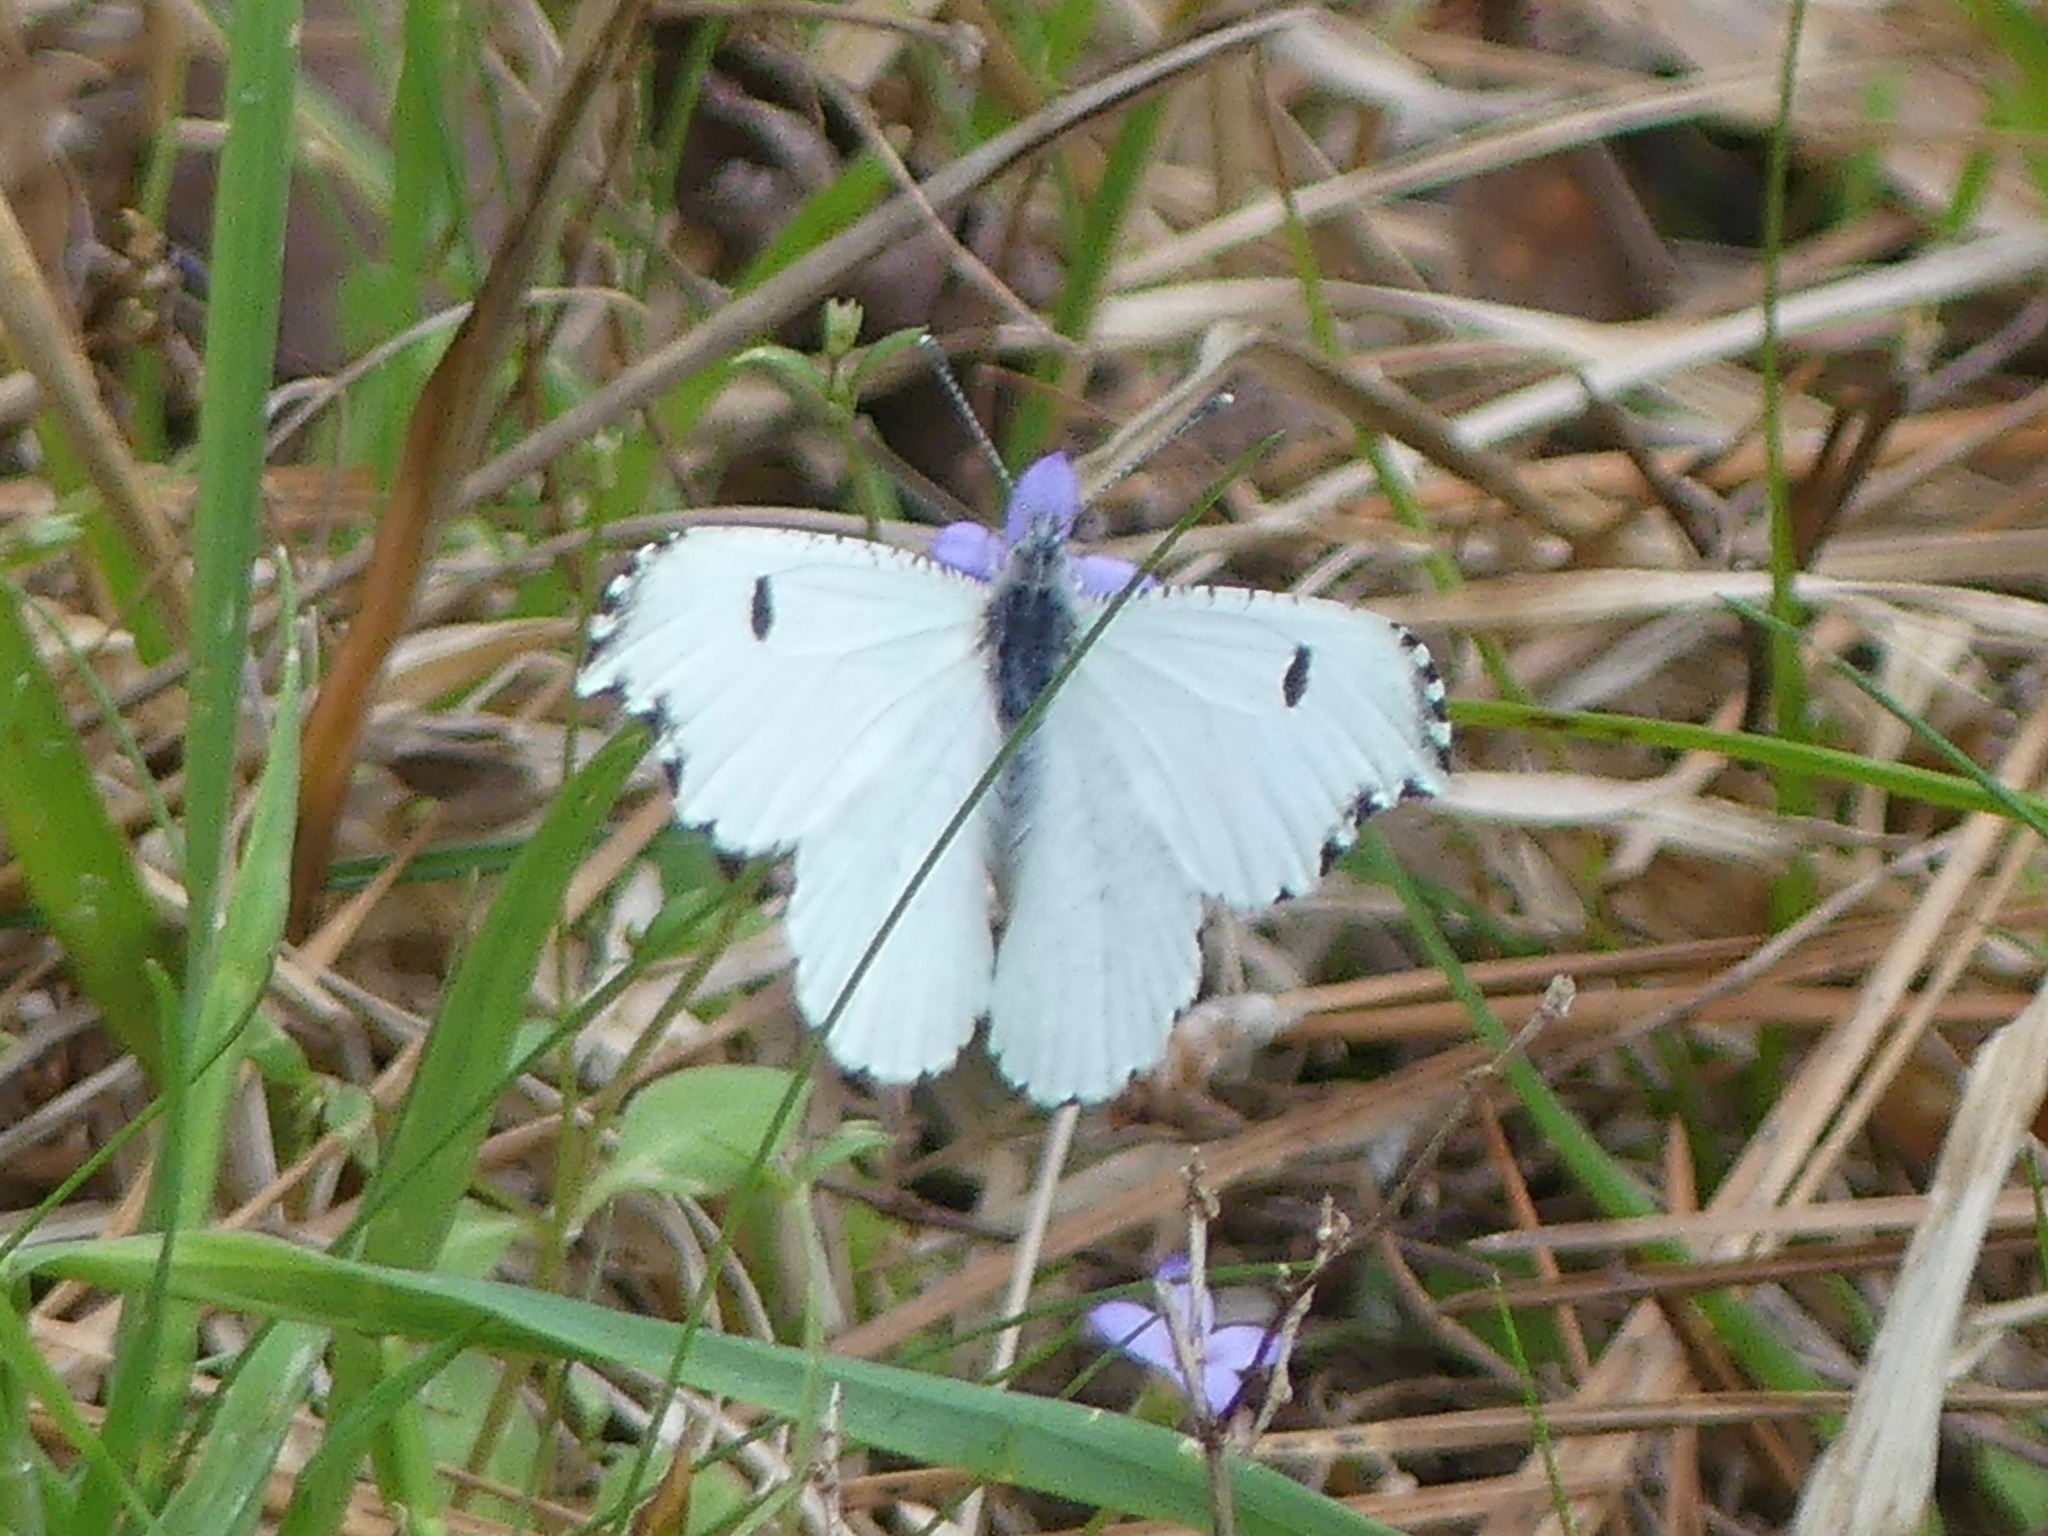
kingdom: Animalia
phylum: Arthropoda
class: Insecta
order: Lepidoptera
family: Pieridae
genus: Anthocharis
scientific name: Anthocharis midea
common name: Falcate orangetip
